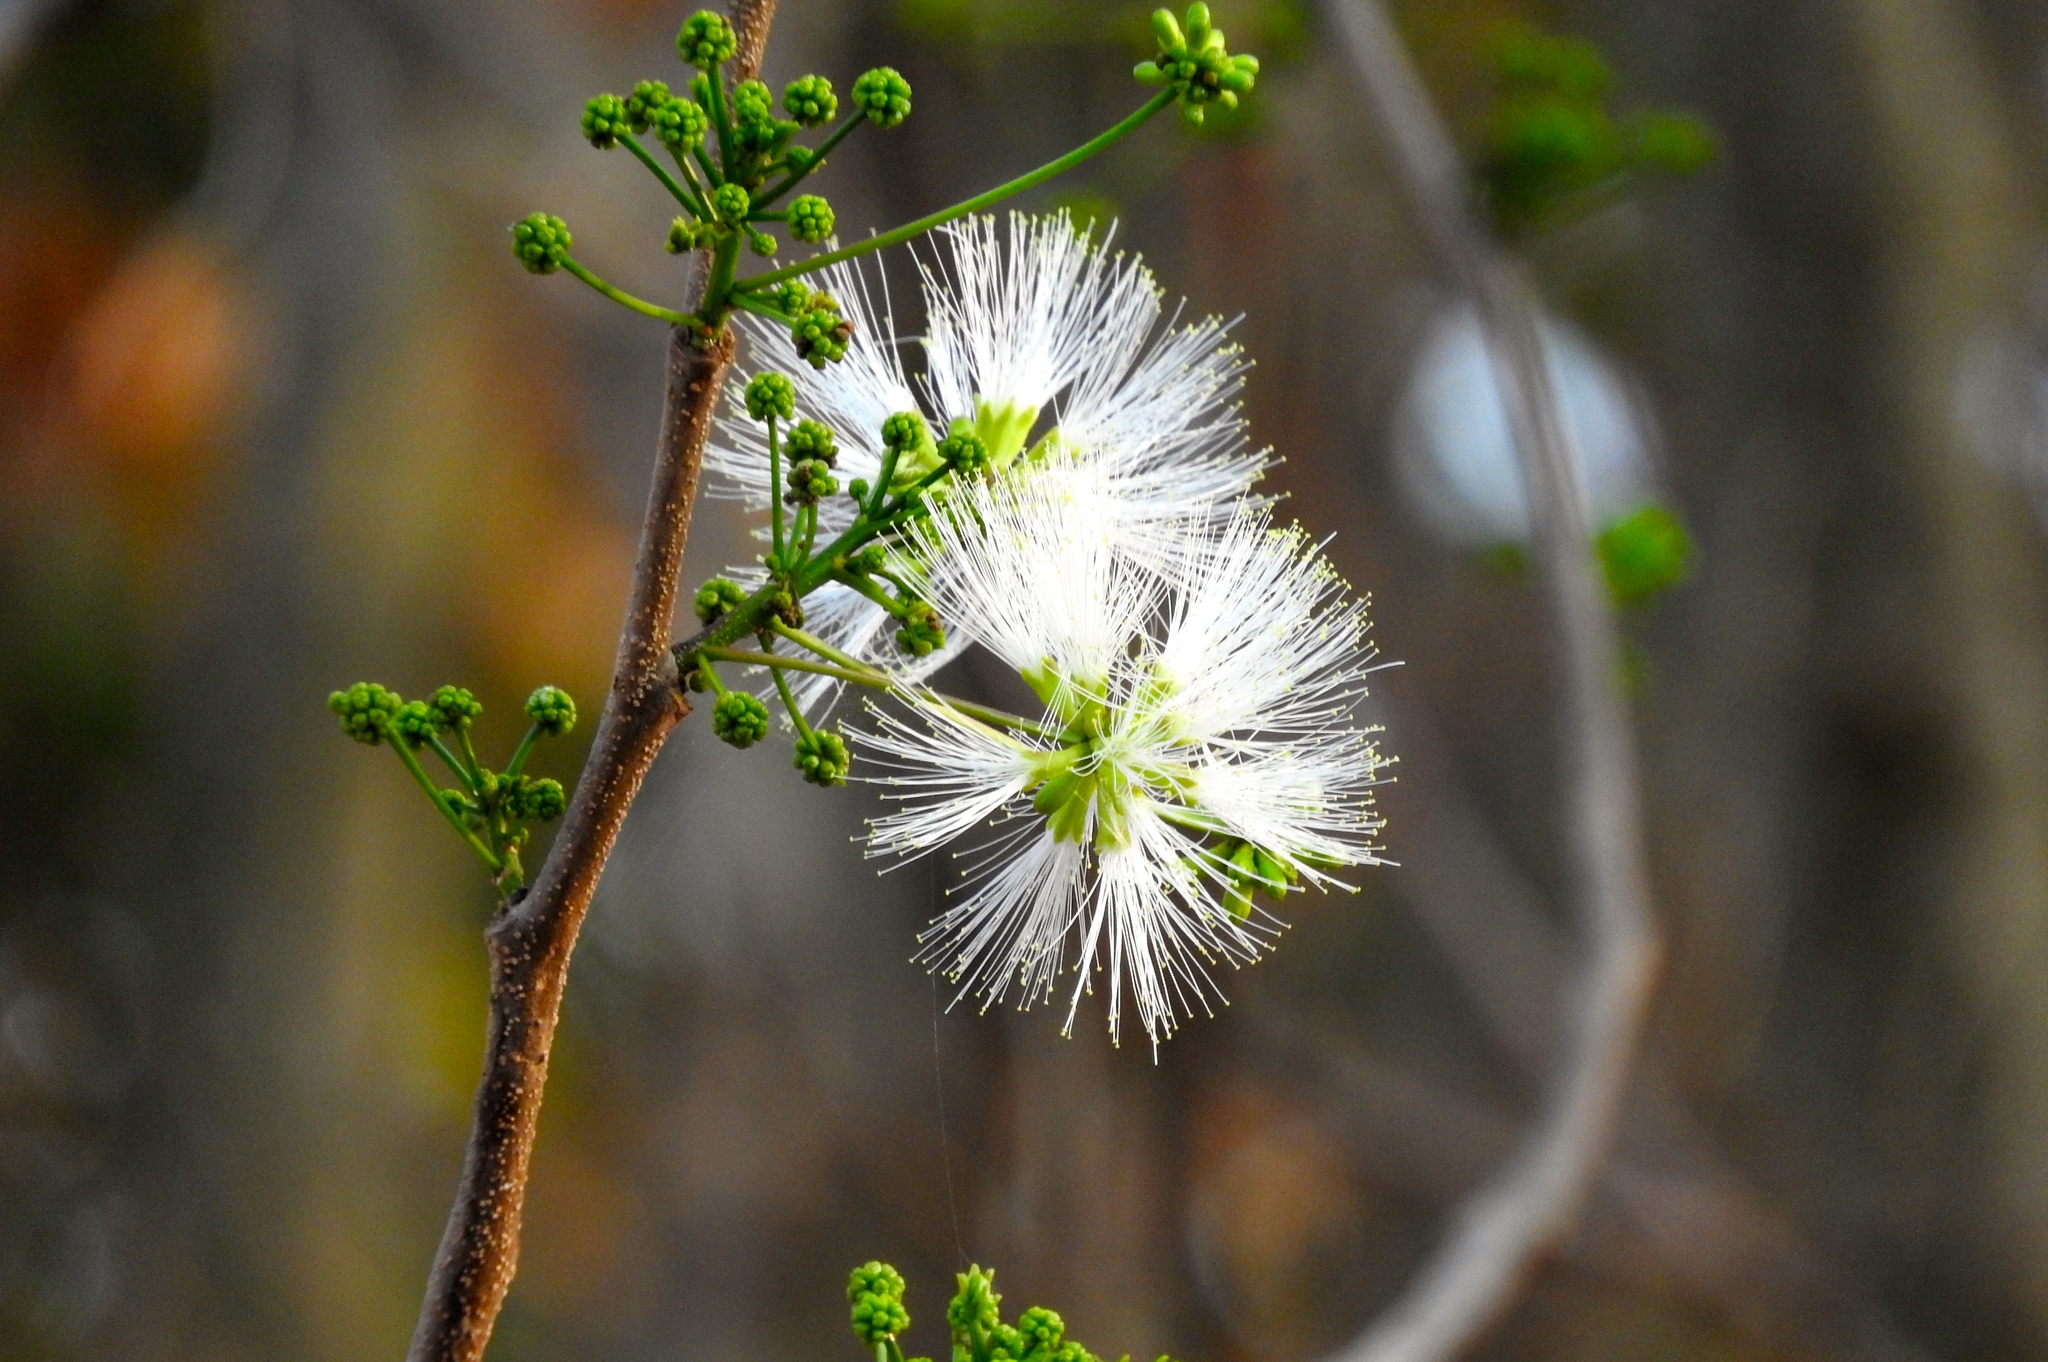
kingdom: Plantae
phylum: Tracheophyta
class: Magnoliopsida
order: Fabales
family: Fabaceae
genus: Albizia
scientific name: Albizia occidentalis
